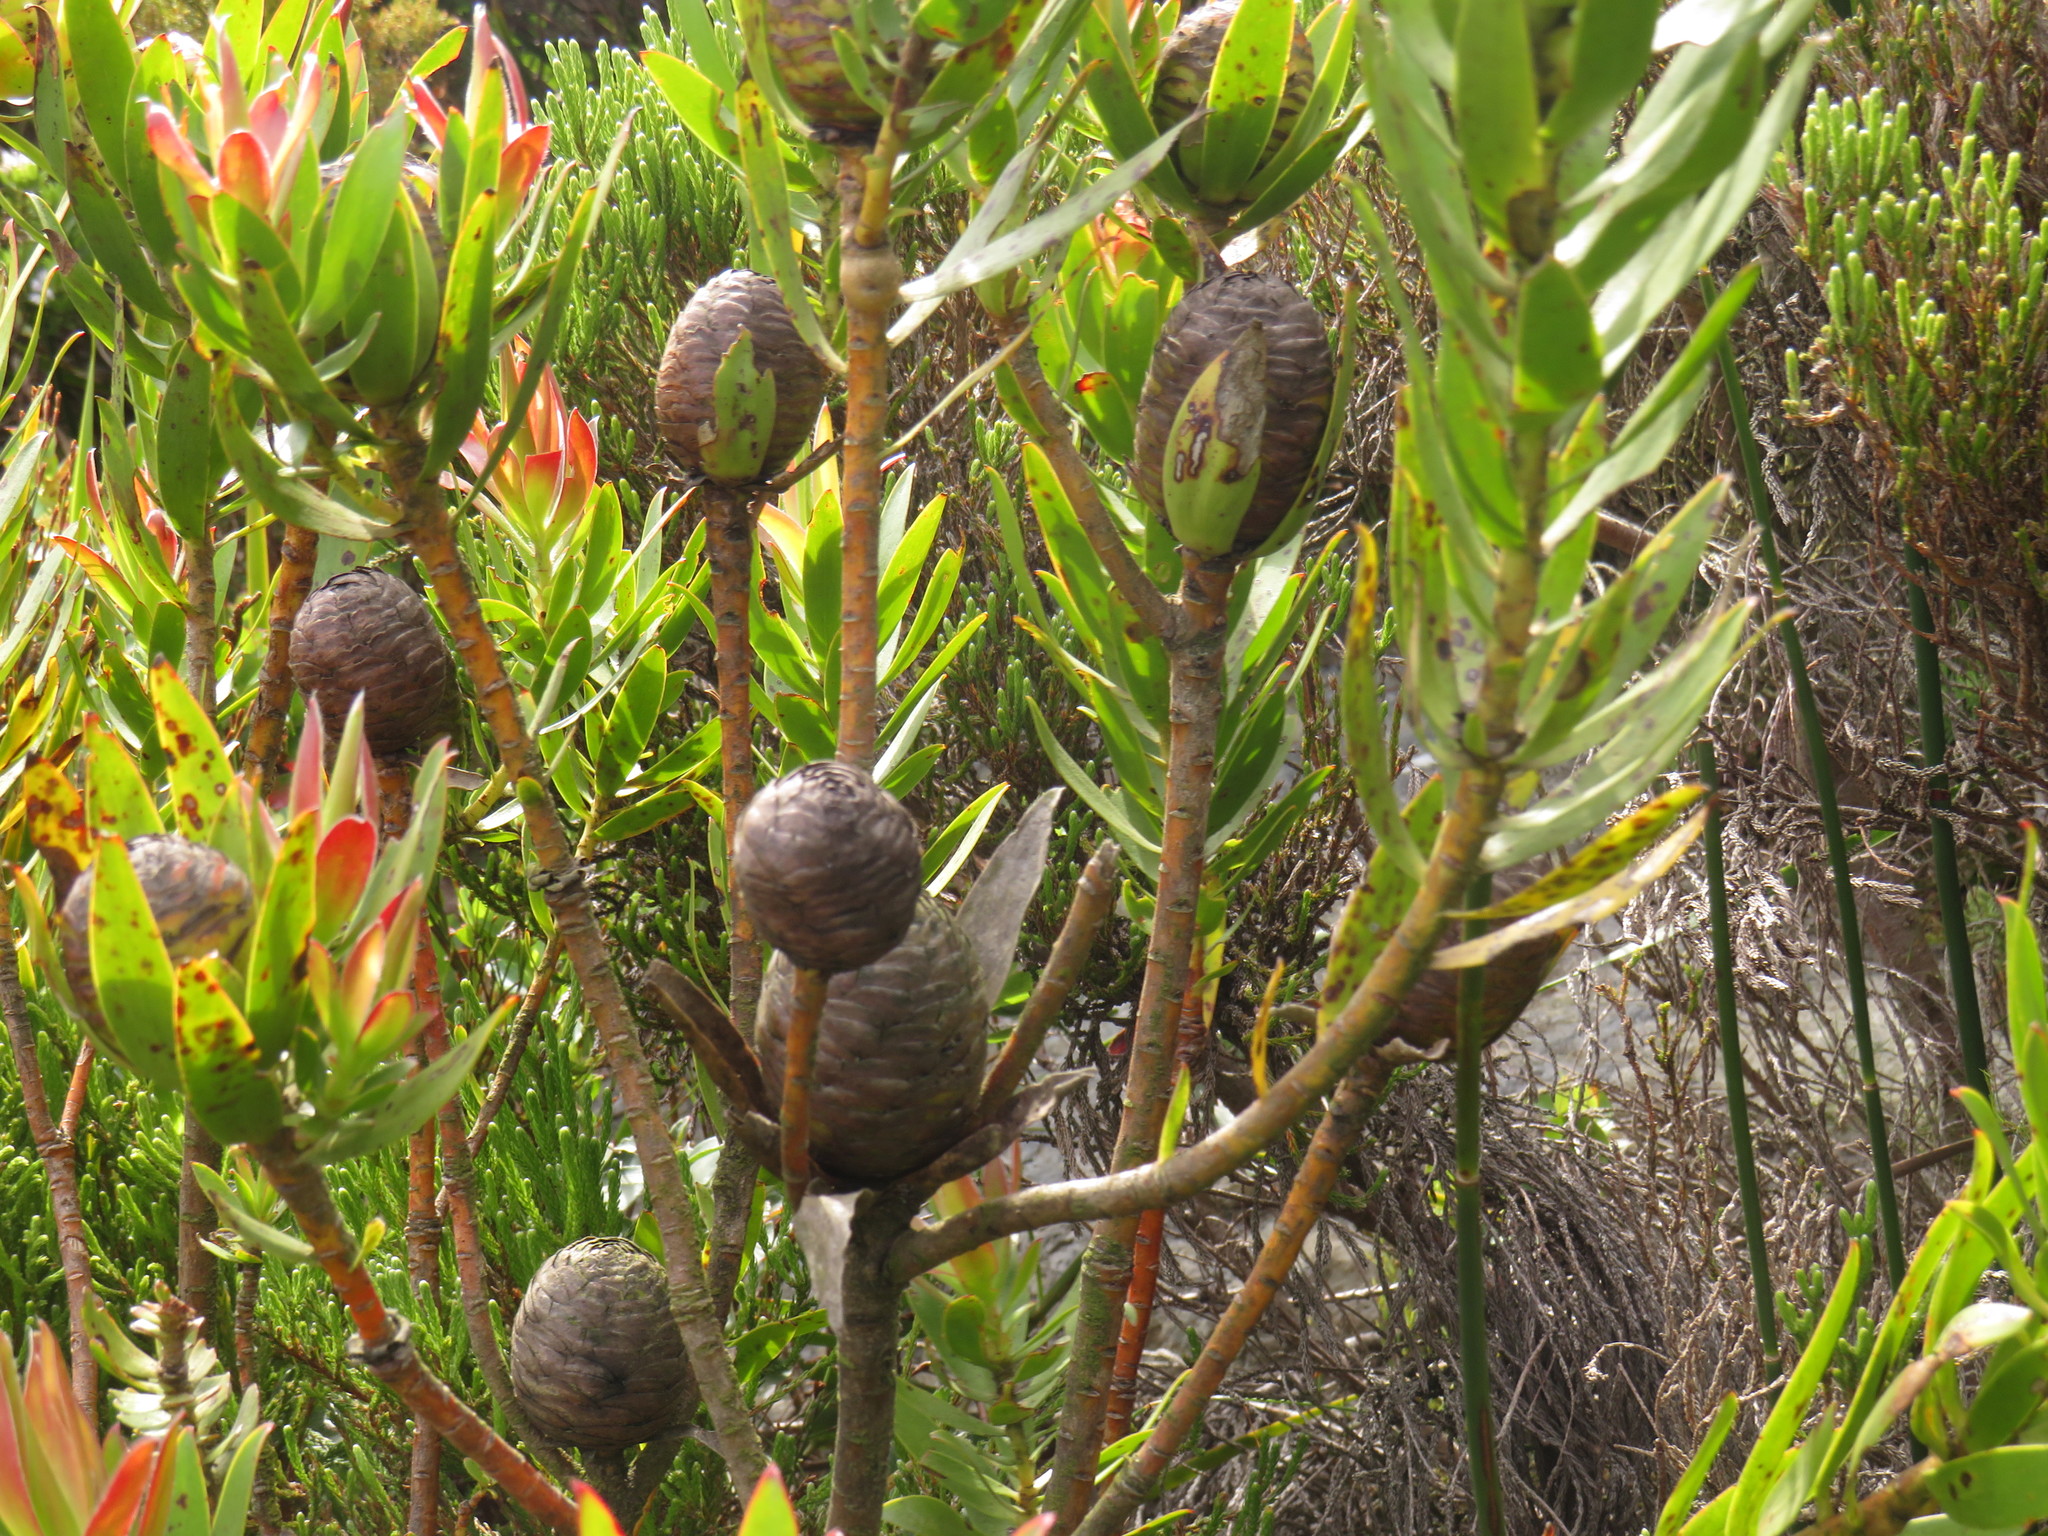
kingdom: Plantae
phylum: Tracheophyta
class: Magnoliopsida
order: Proteales
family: Proteaceae
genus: Leucadendron
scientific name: Leucadendron gandogeri
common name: Broad-leaf conebush
